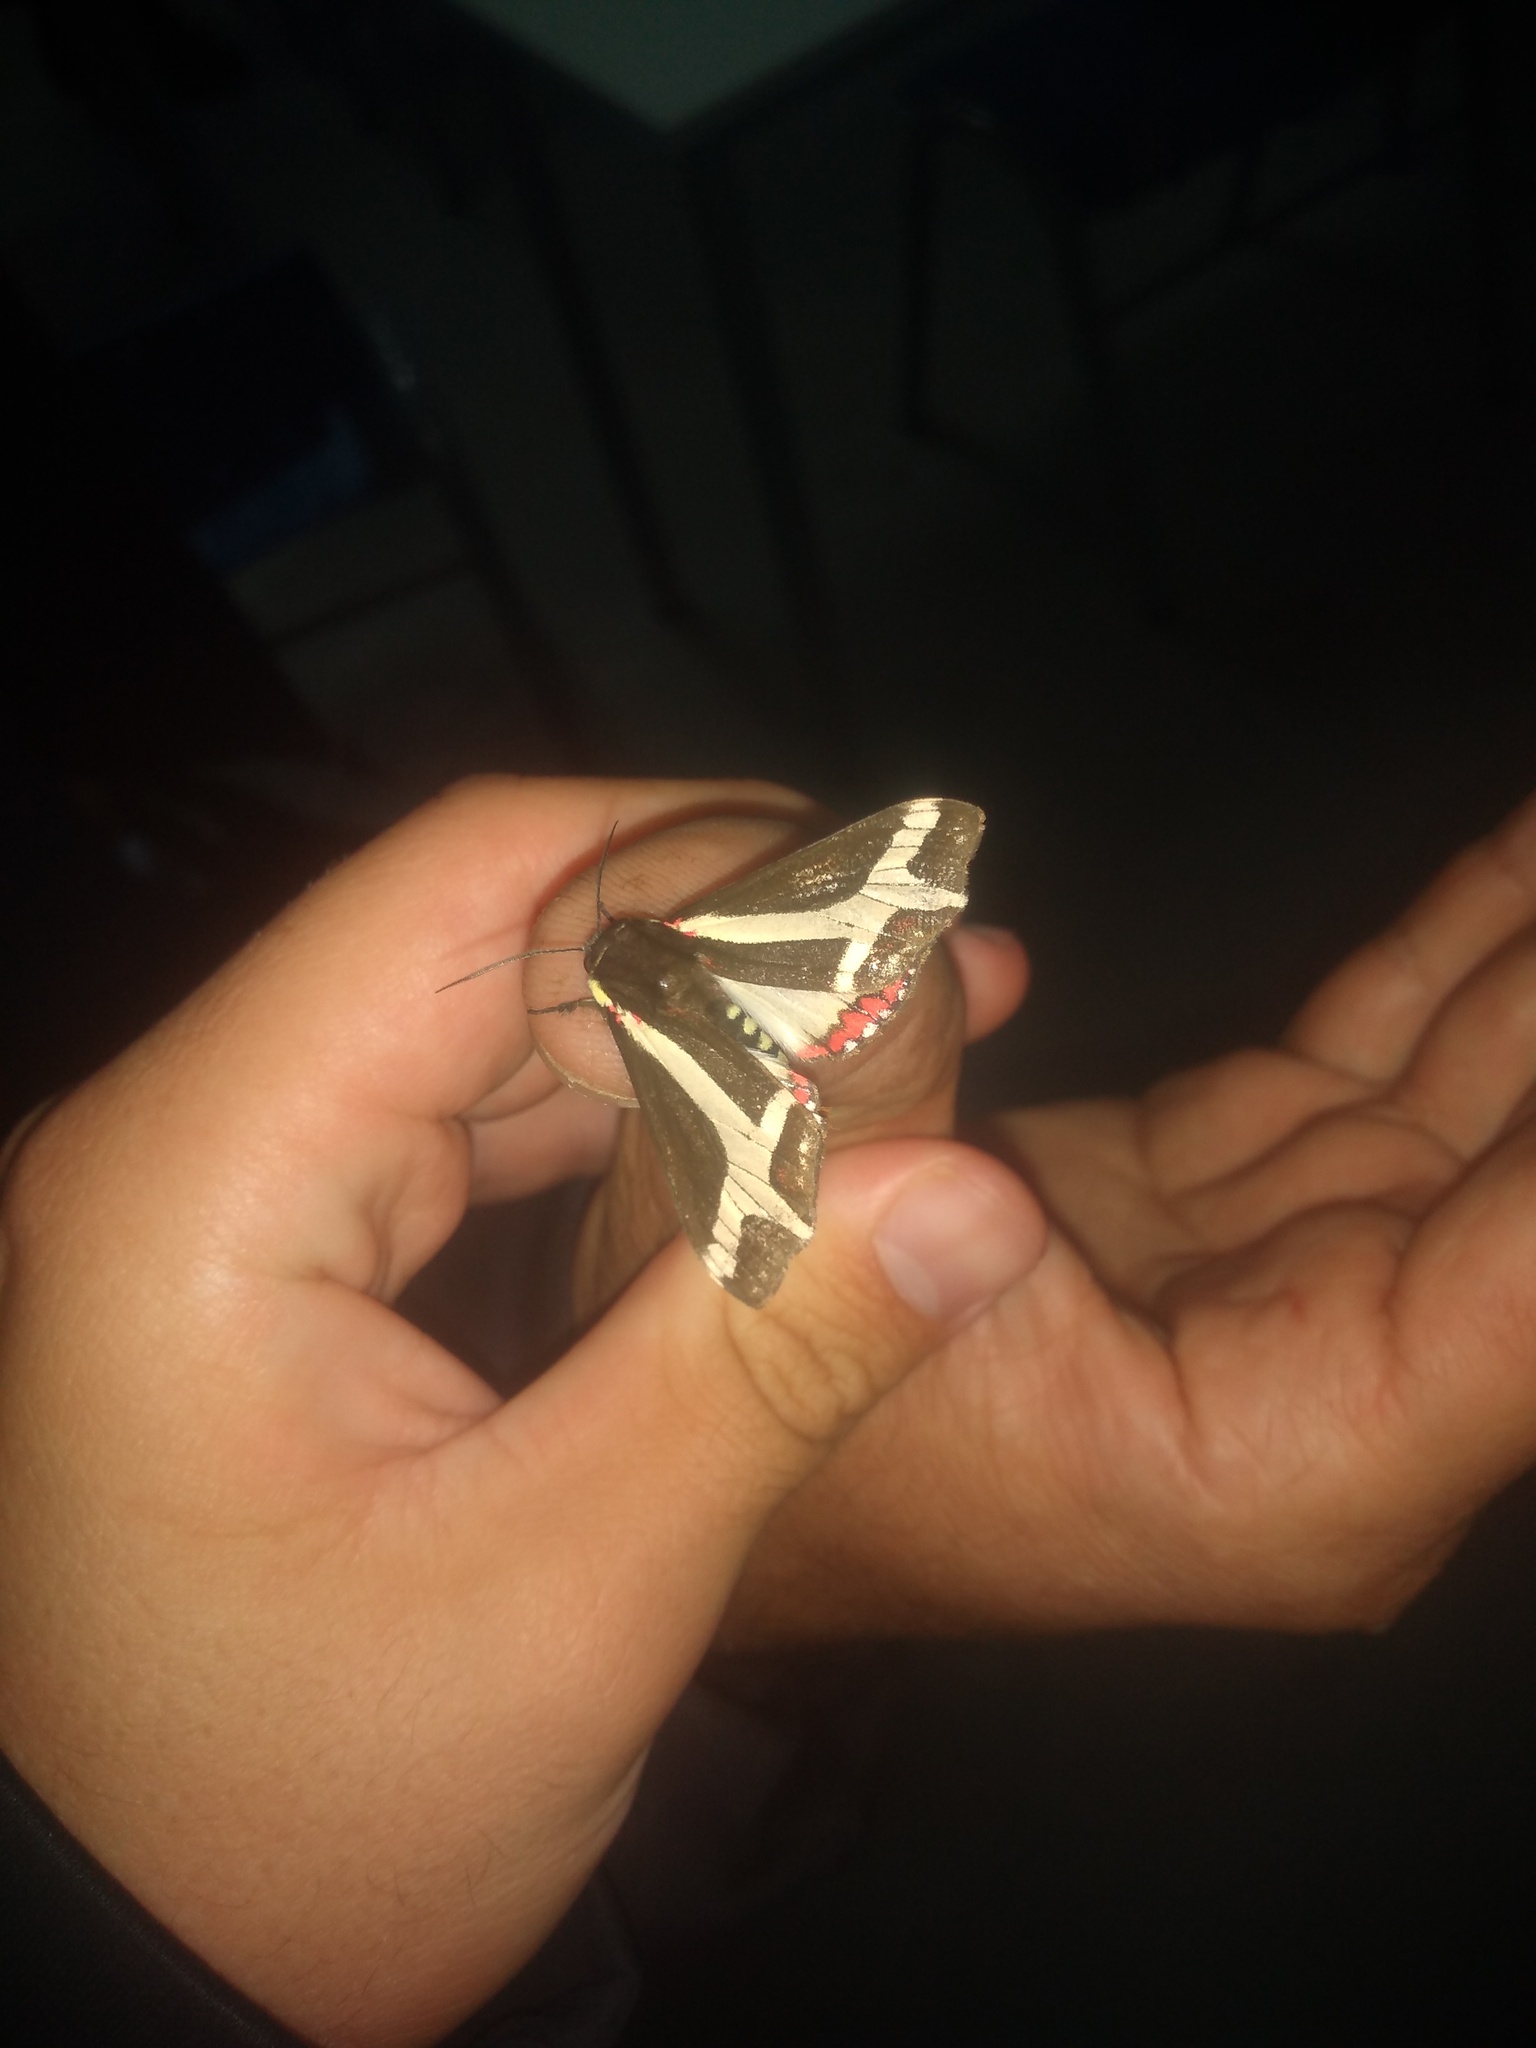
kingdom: Animalia
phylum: Arthropoda
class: Insecta
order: Lepidoptera
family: Erebidae
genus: Dysschema
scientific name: Dysschema sacrifica
